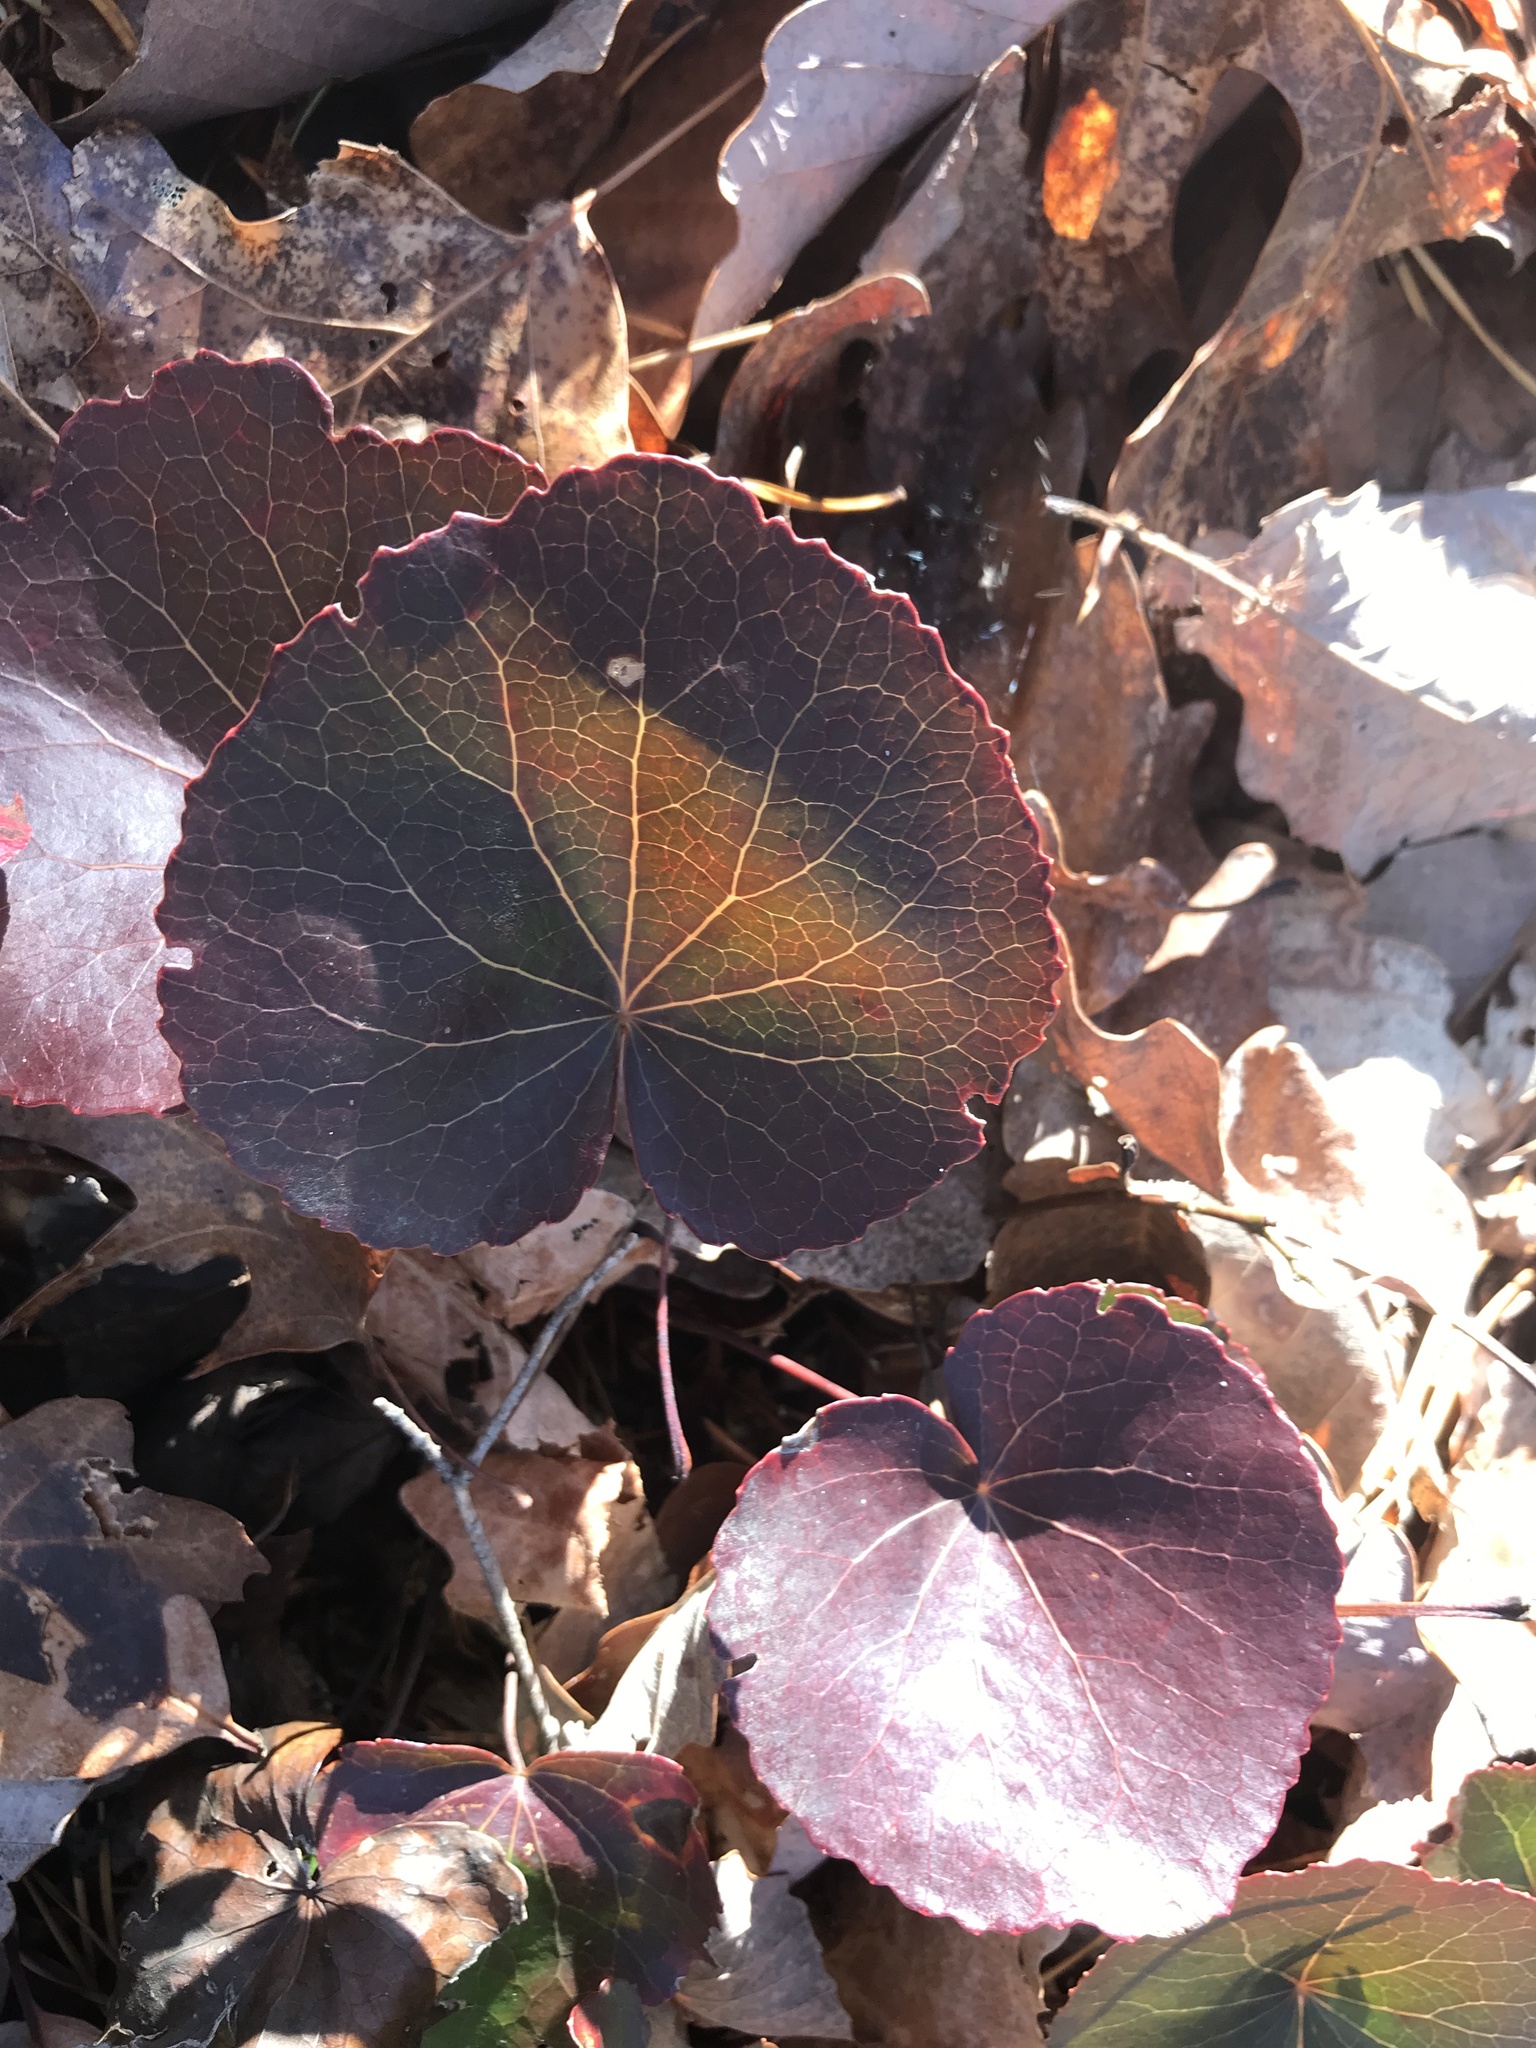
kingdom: Plantae
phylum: Tracheophyta
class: Magnoliopsida
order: Ericales
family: Diapensiaceae
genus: Galax
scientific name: Galax urceolata
